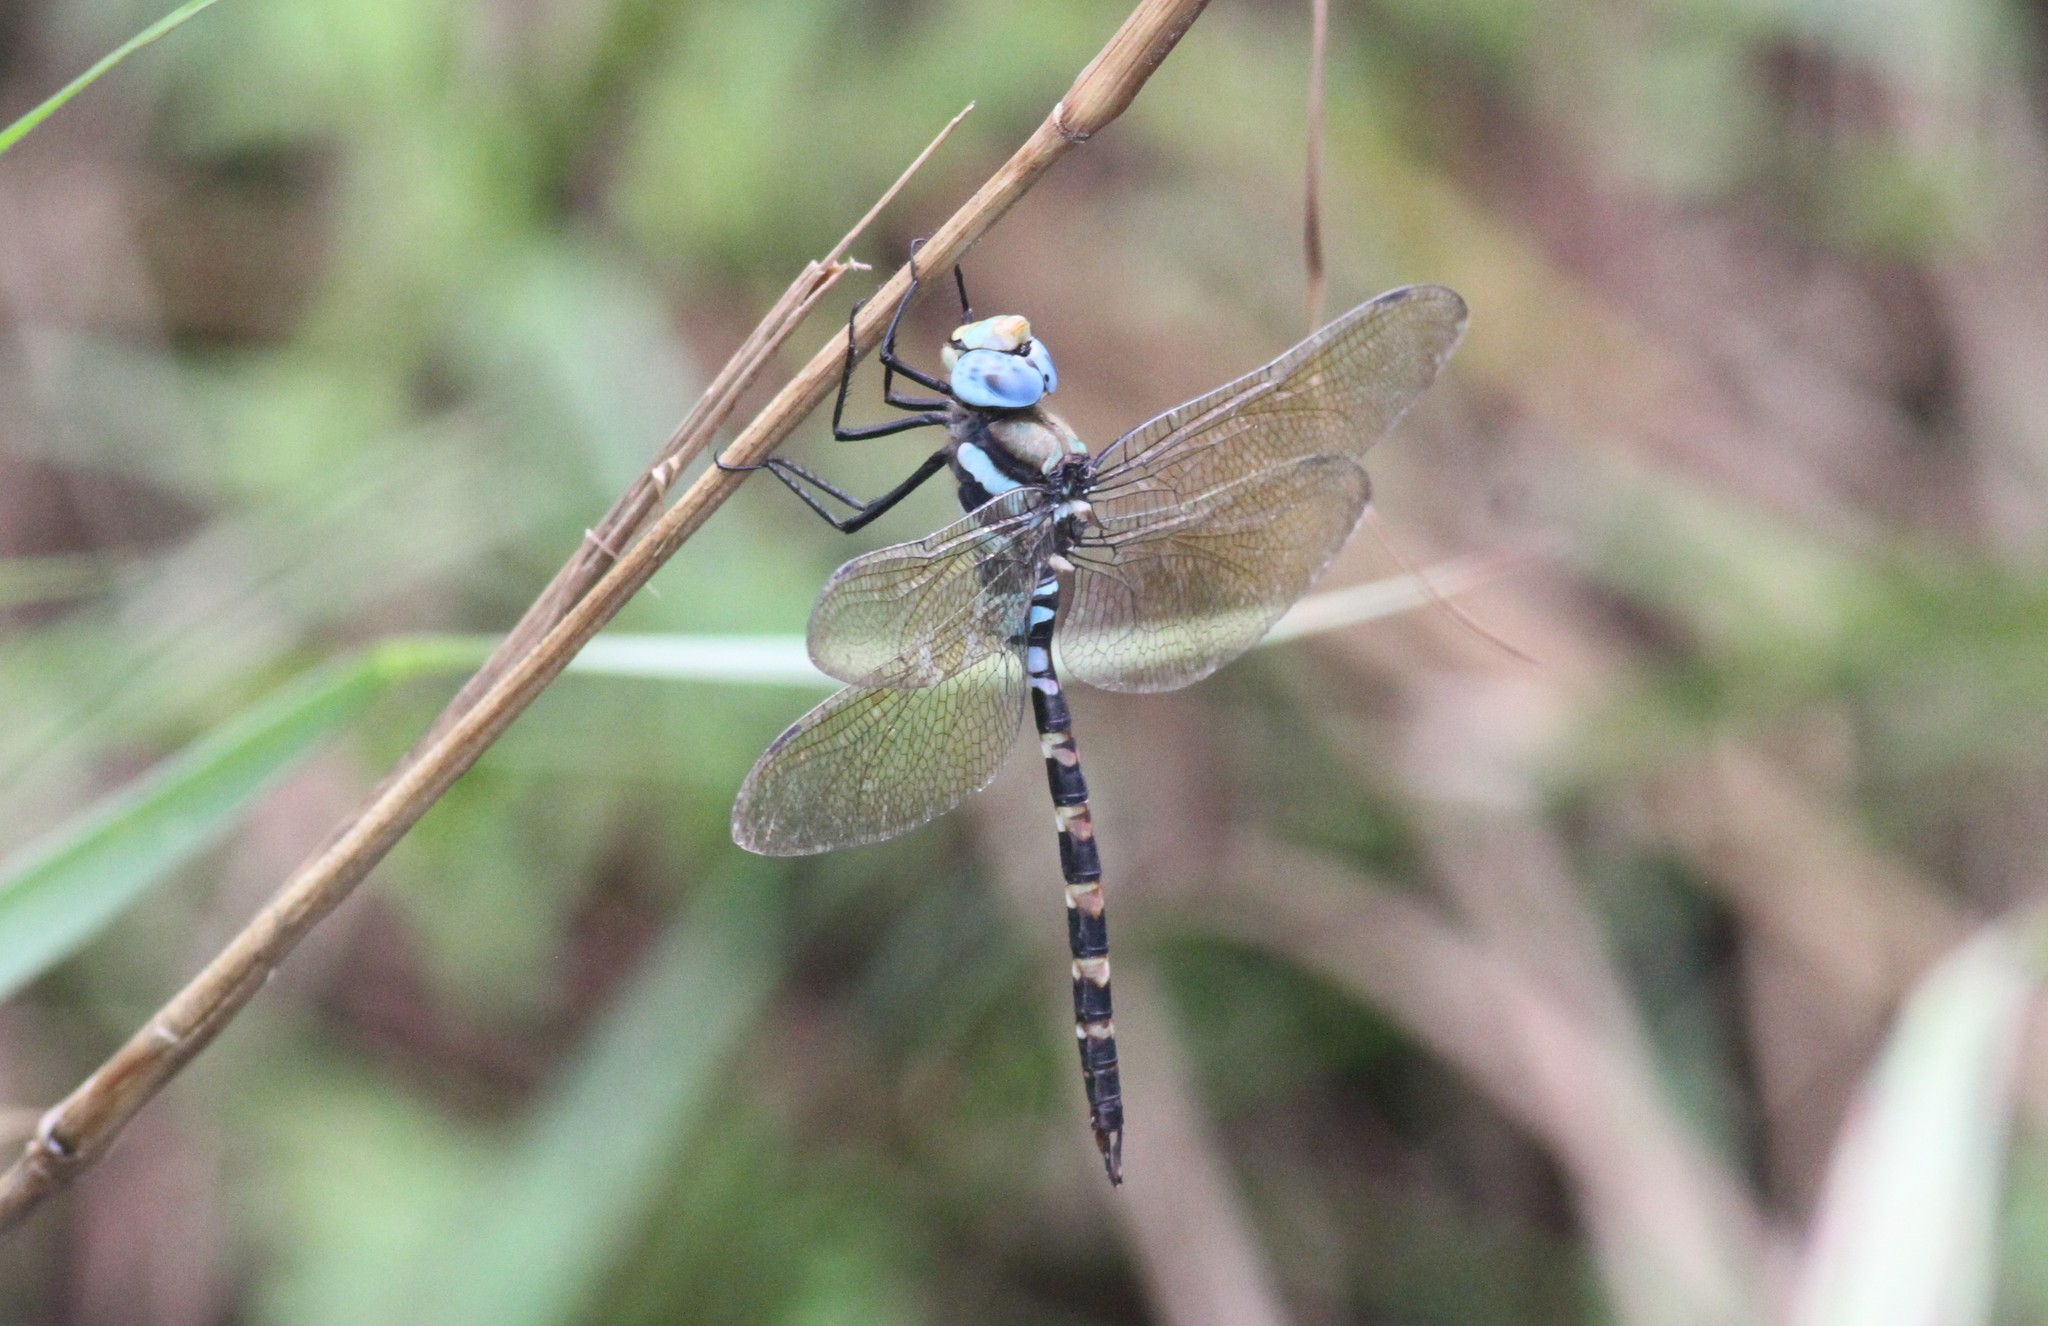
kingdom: Animalia
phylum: Arthropoda
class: Insecta
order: Odonata
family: Aeshnidae
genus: Anax
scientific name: Anax immaculifrons
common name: Magnificent emperor
